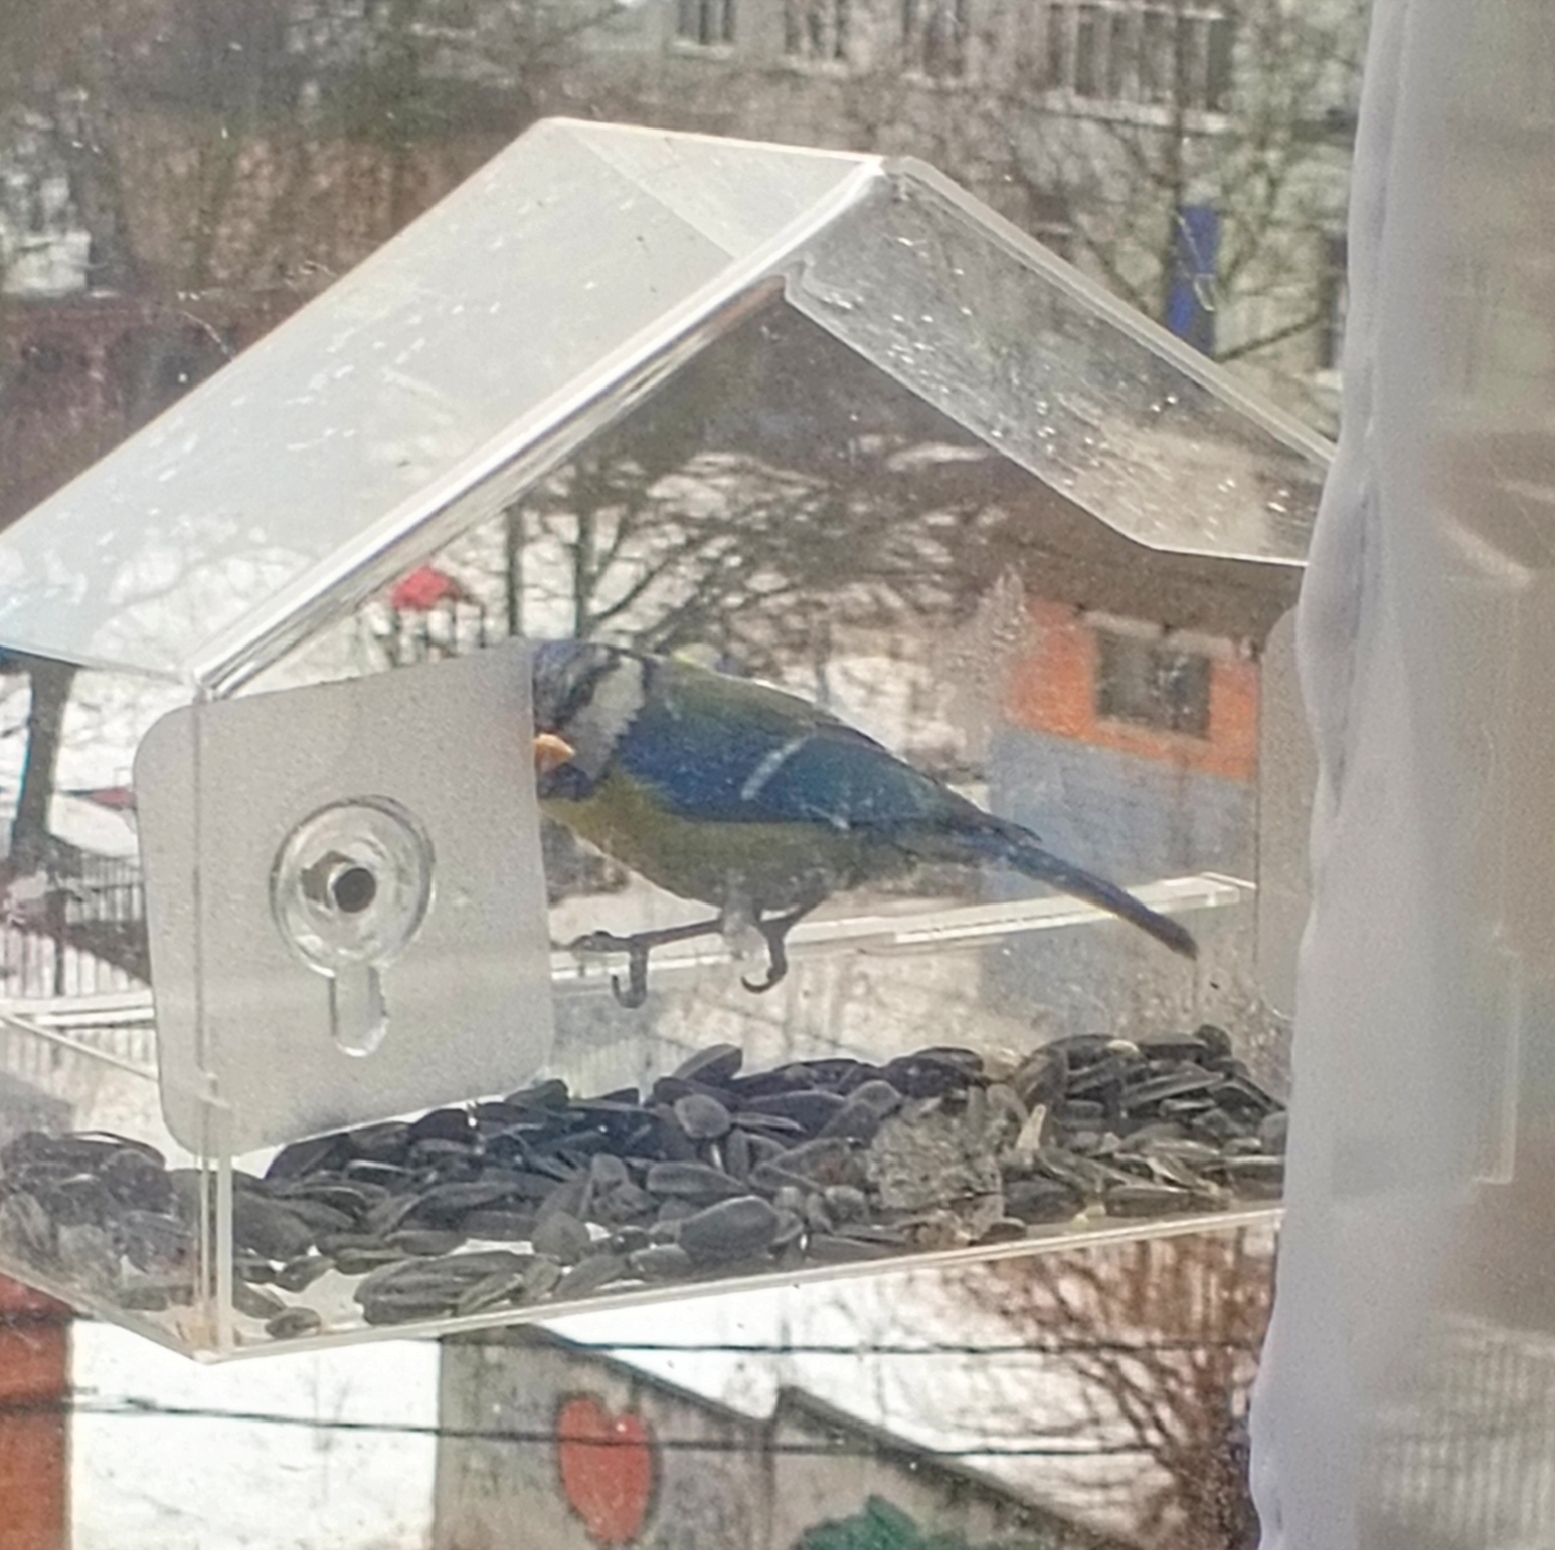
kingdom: Animalia
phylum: Chordata
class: Aves
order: Passeriformes
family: Paridae
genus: Cyanistes
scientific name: Cyanistes caeruleus
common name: Eurasian blue tit
